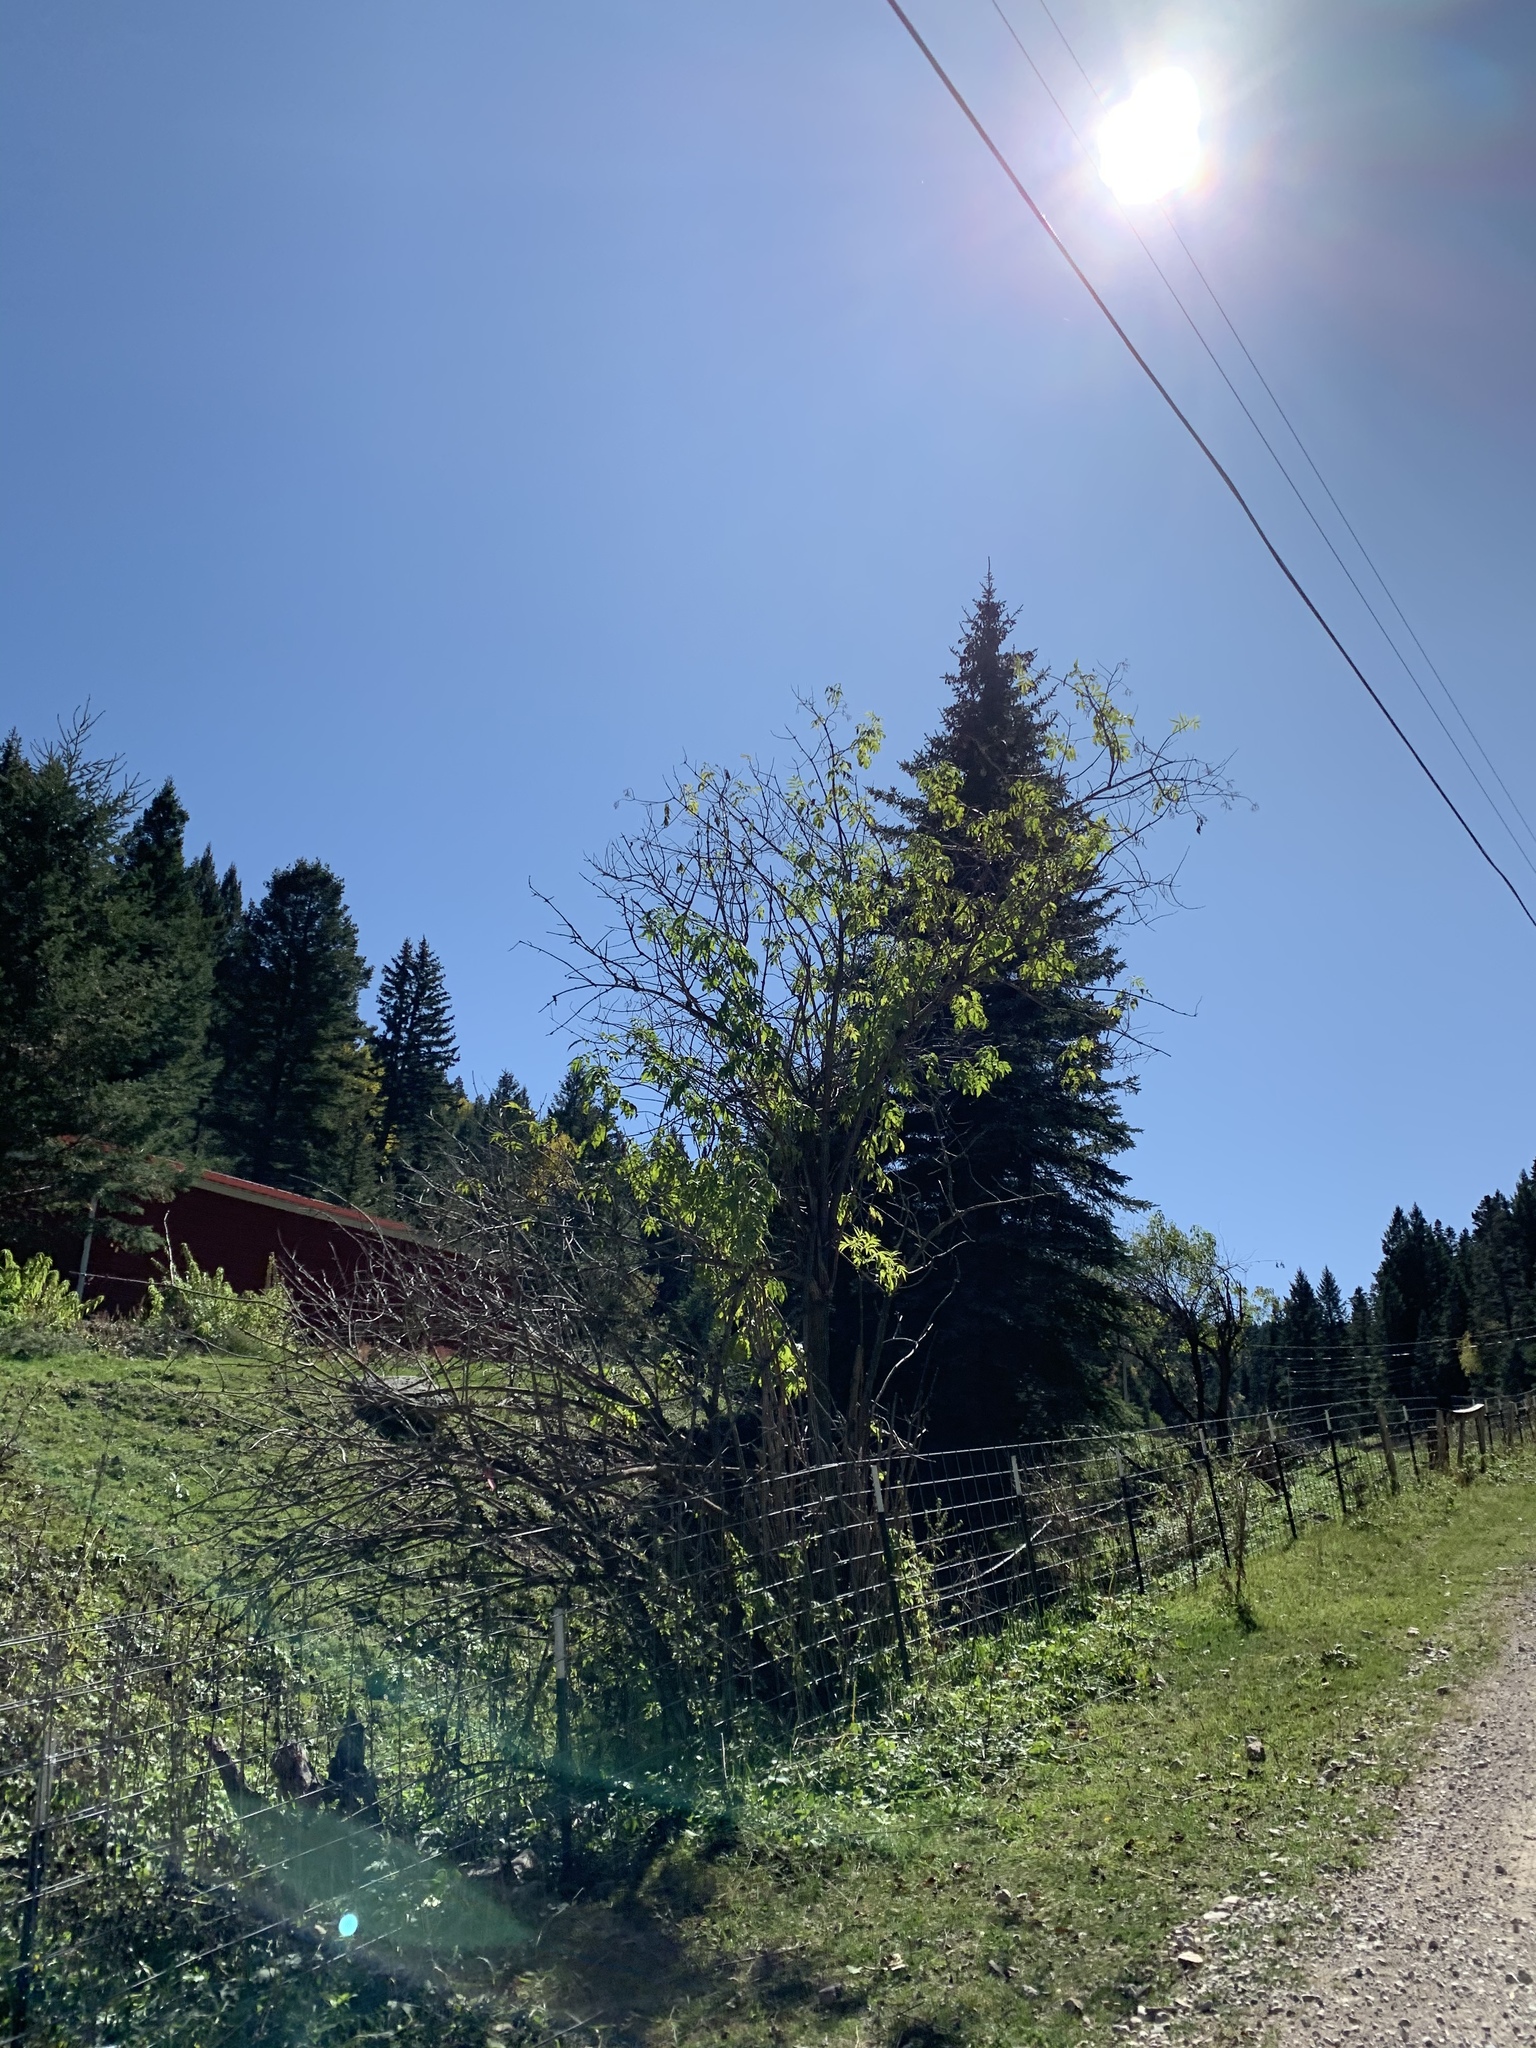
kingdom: Plantae
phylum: Tracheophyta
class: Magnoliopsida
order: Dipsacales
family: Viburnaceae
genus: Sambucus
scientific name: Sambucus cerulea
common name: Blue elder
